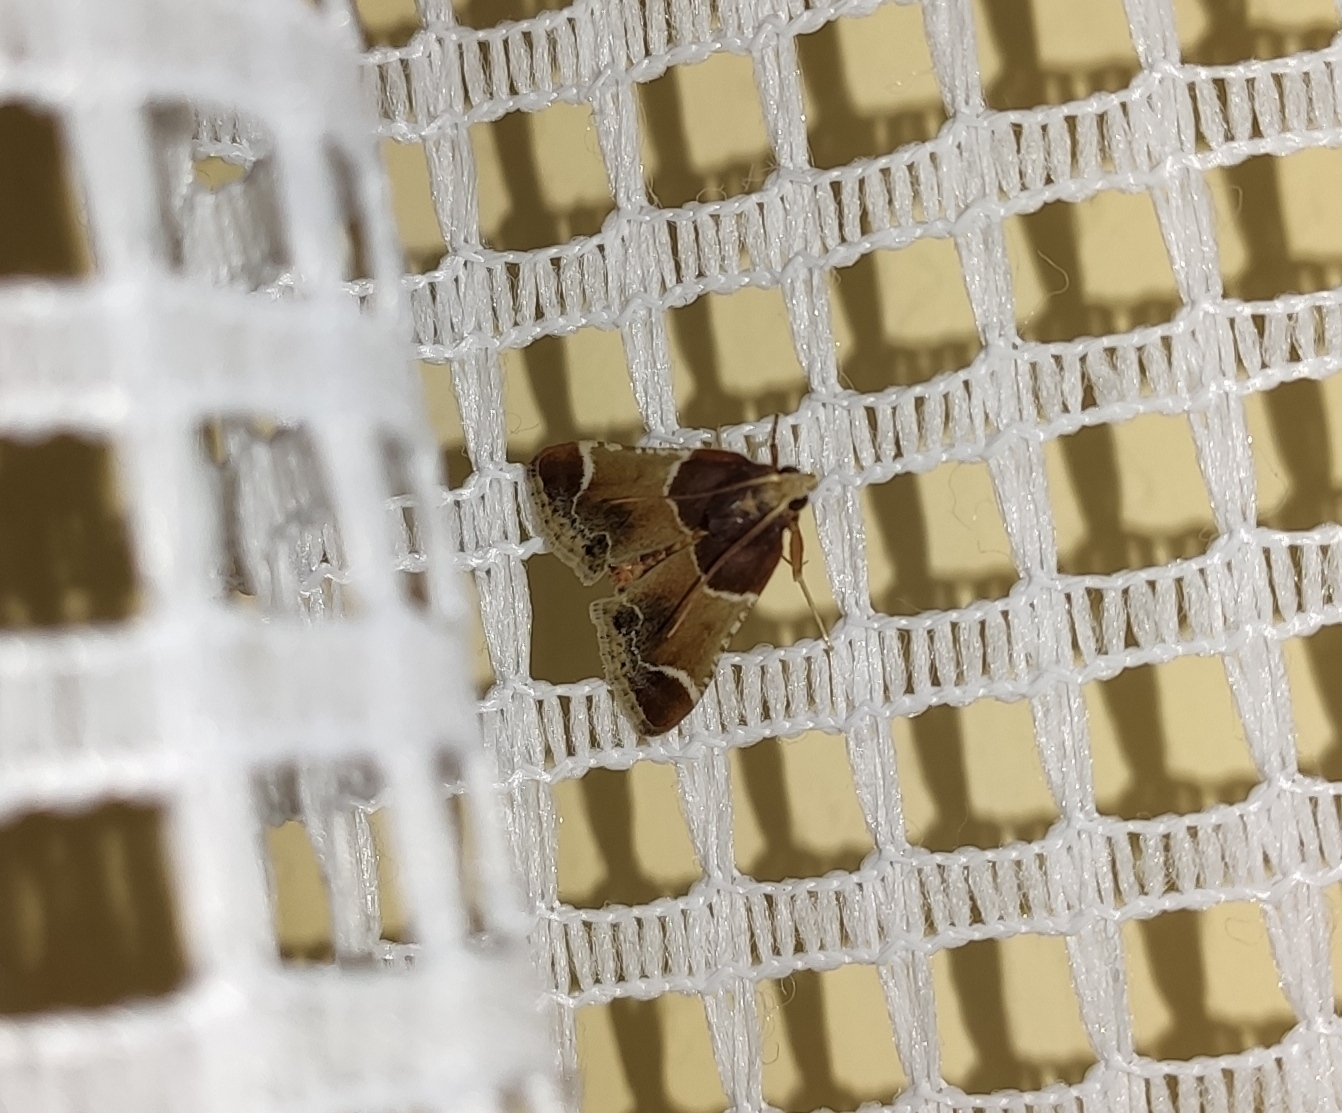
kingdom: Animalia
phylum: Arthropoda
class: Insecta
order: Lepidoptera
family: Pyralidae
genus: Pyralis
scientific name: Pyralis farinalis
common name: Meal moth
